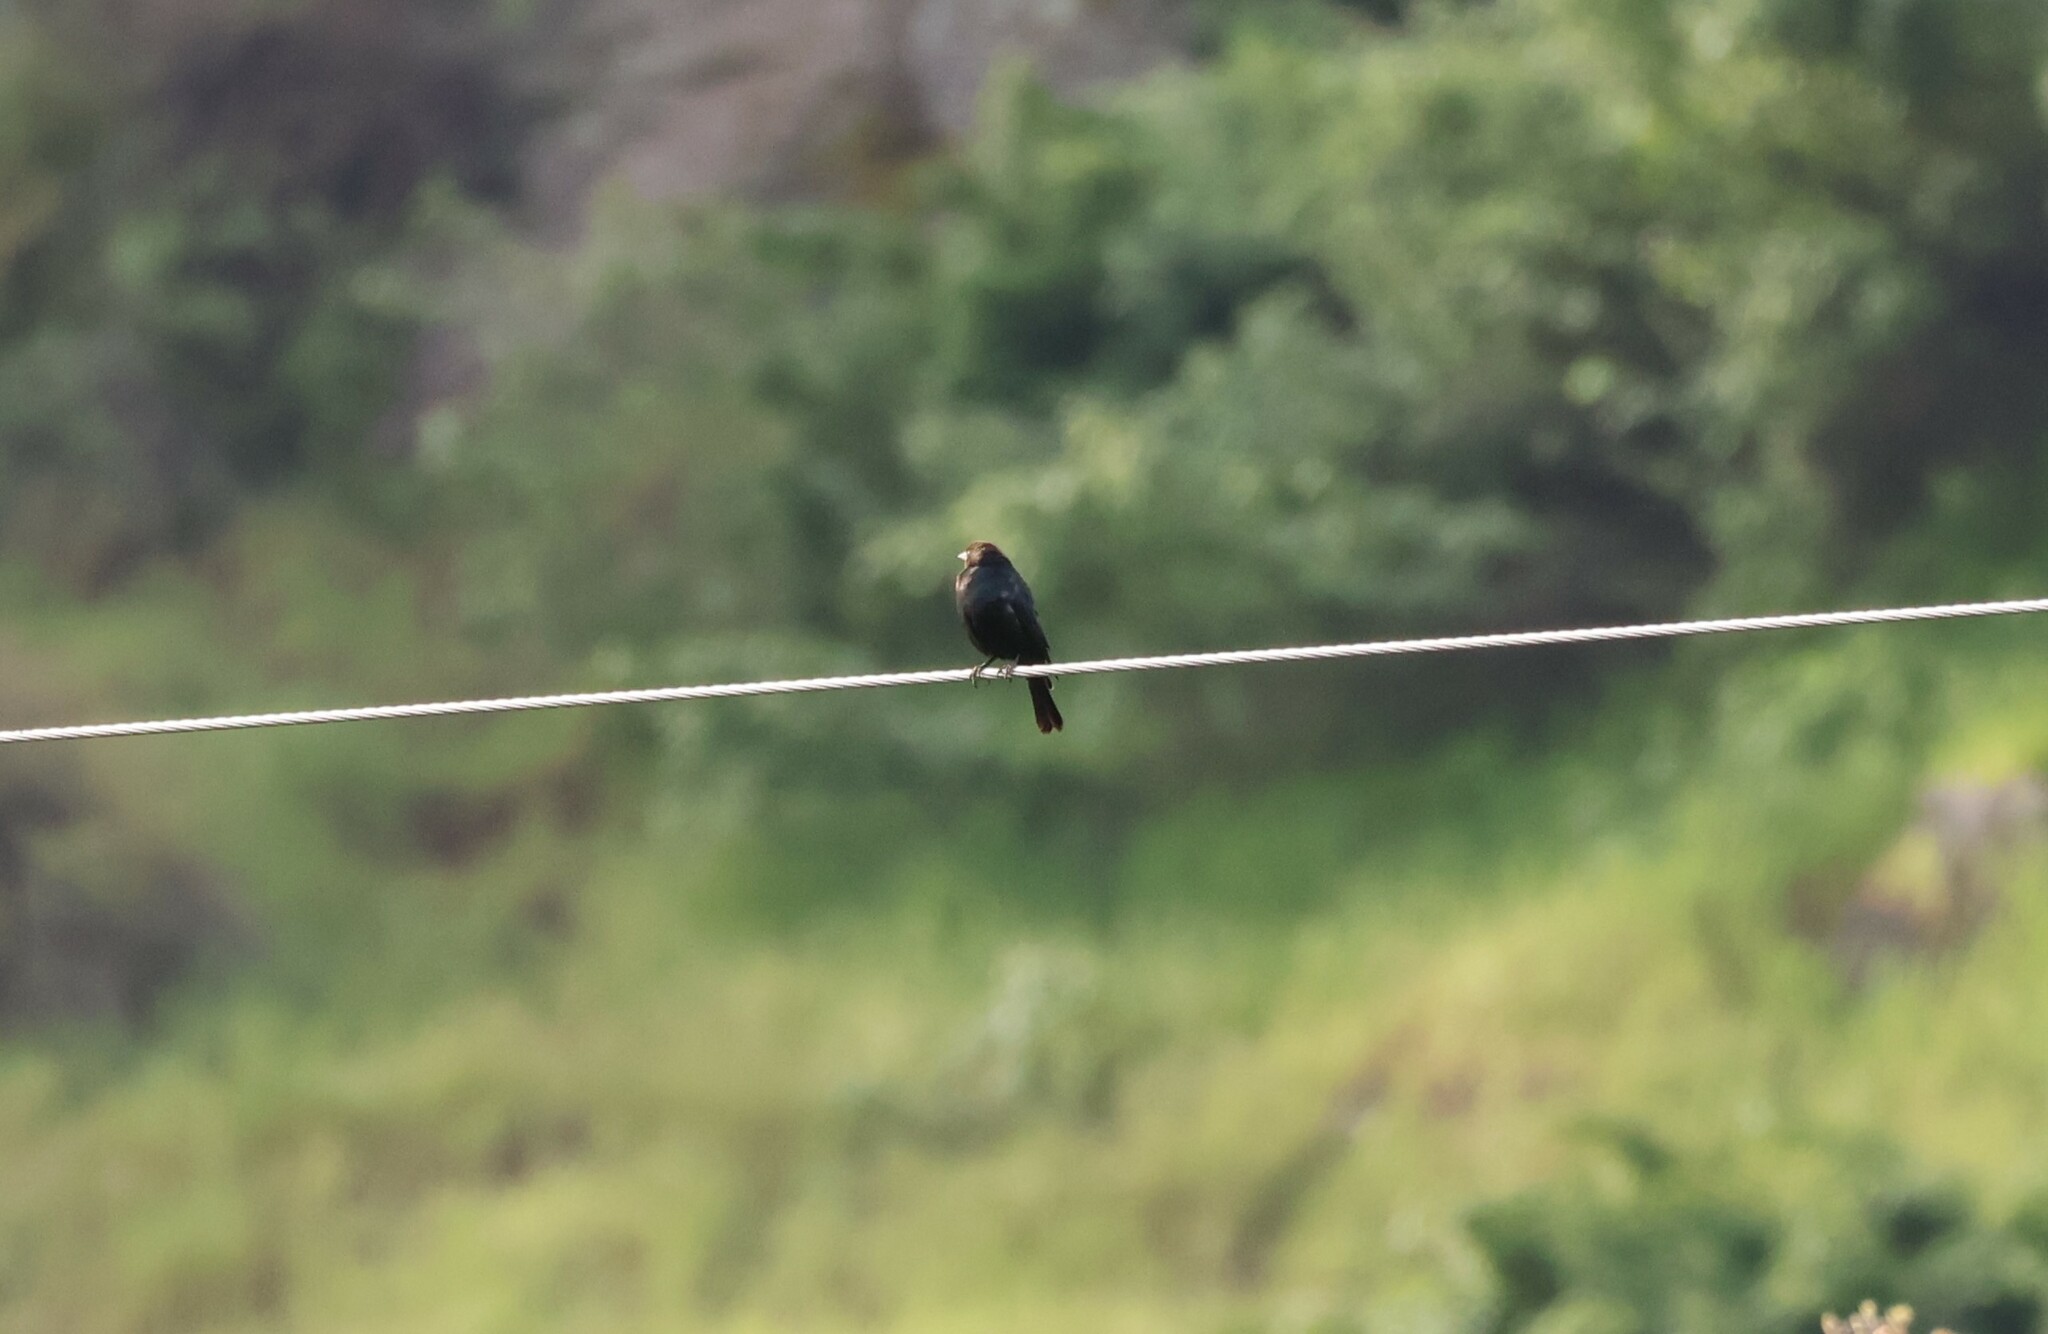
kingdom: Animalia
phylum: Chordata
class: Aves
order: Passeriformes
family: Icteridae
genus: Molothrus
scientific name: Molothrus ater
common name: Brown-headed cowbird
